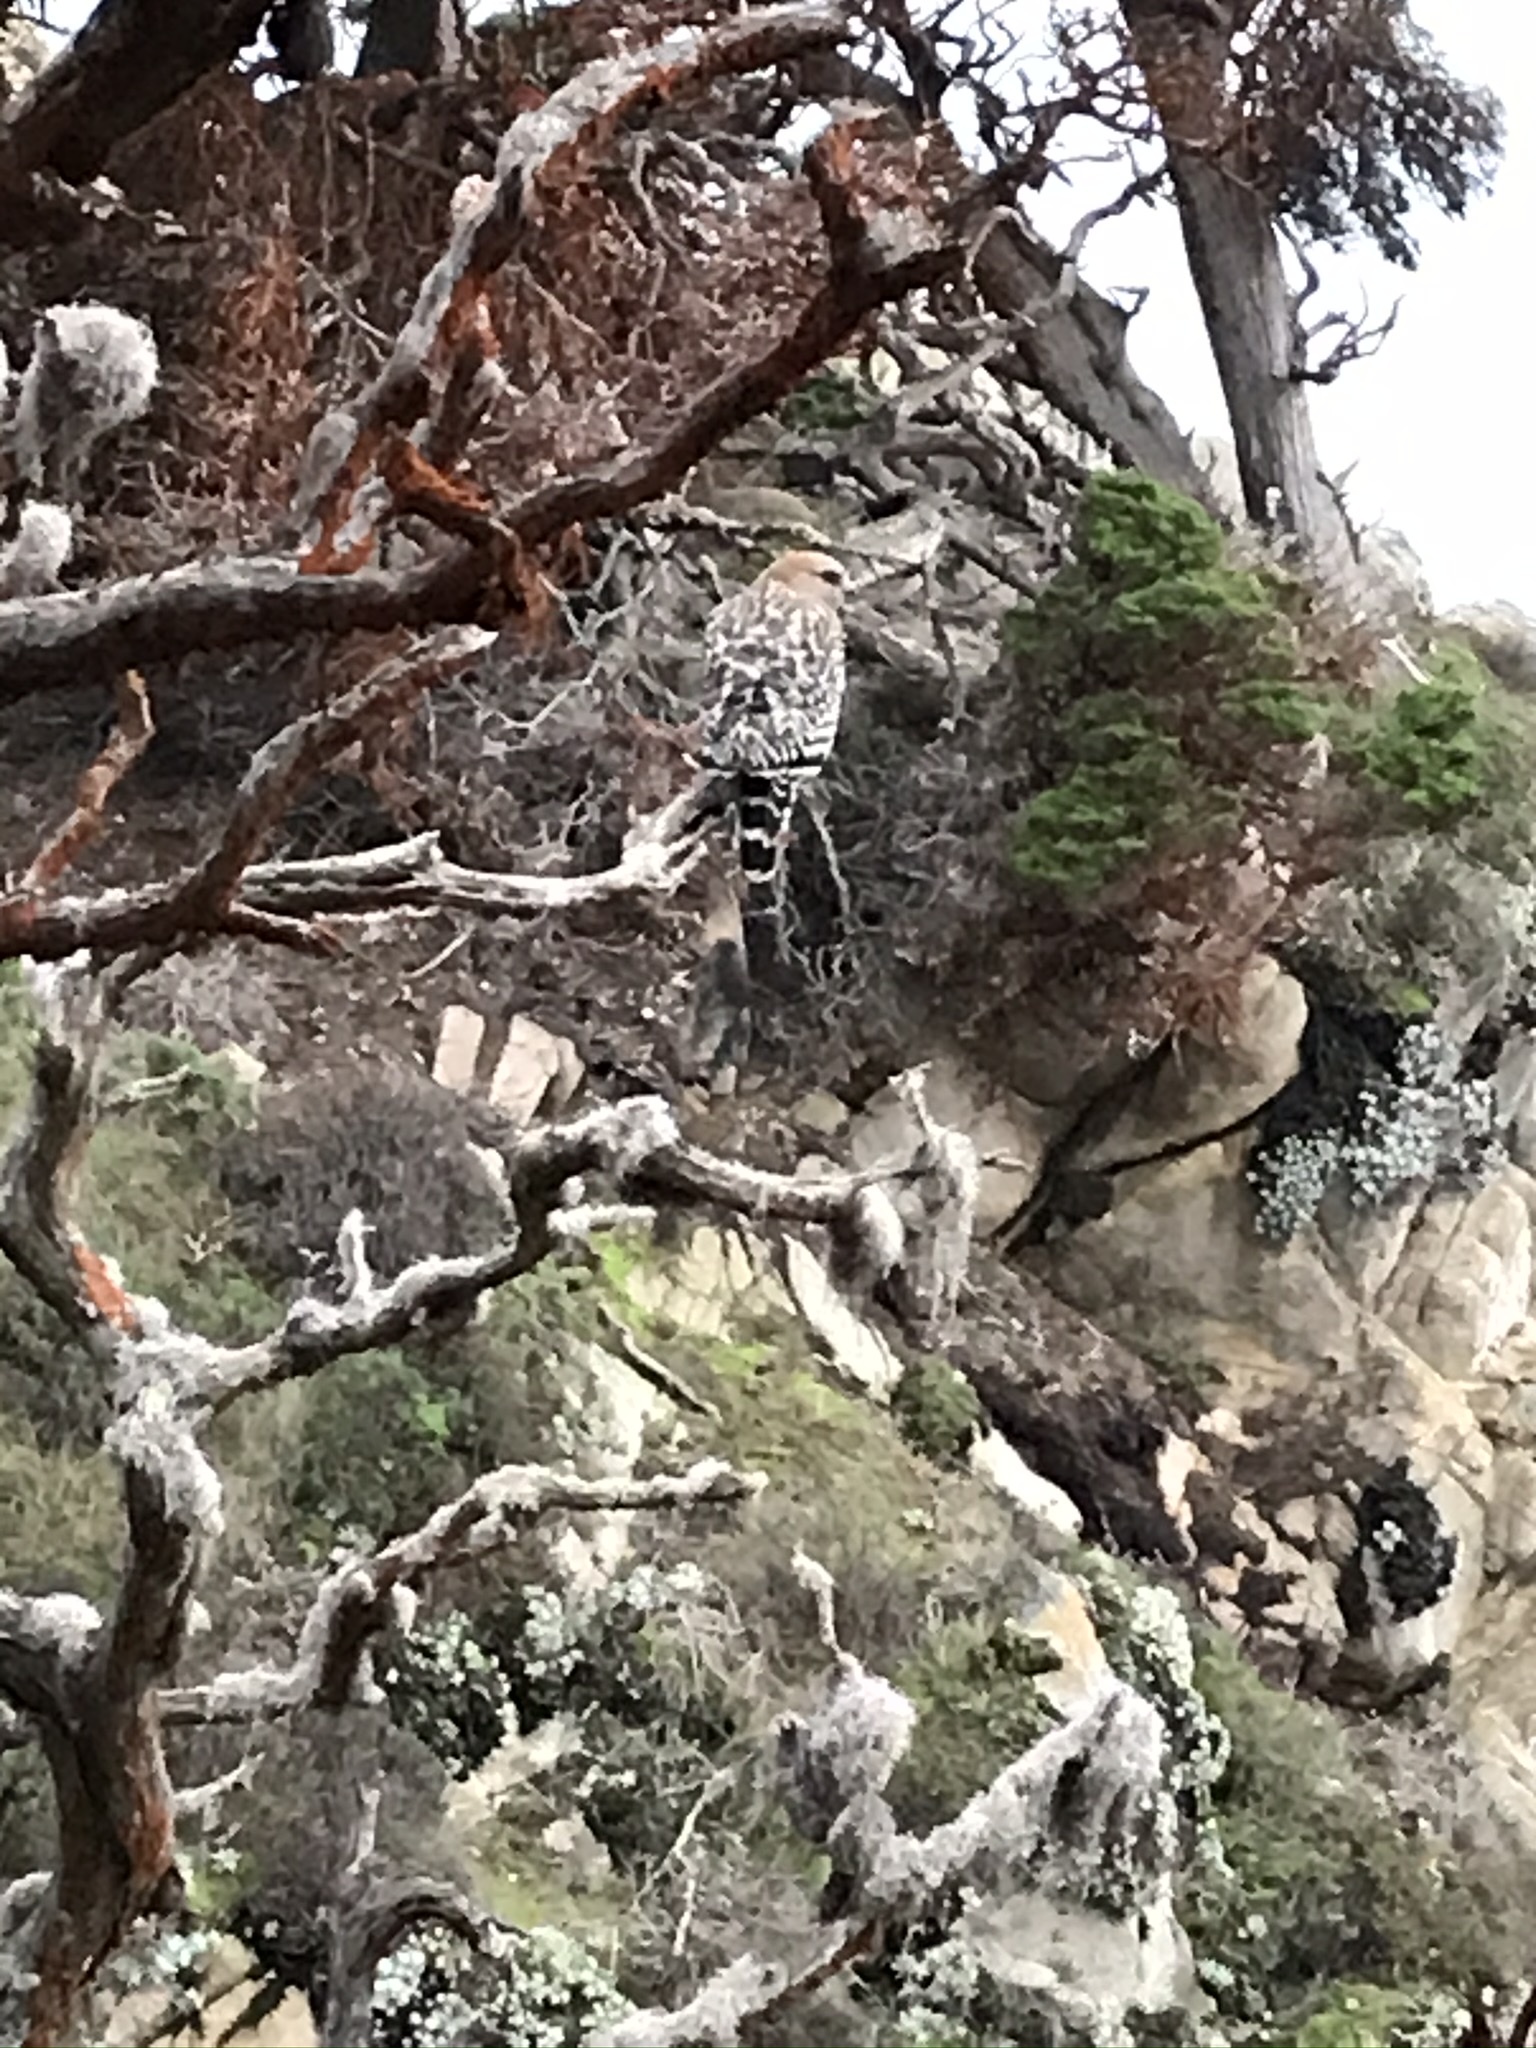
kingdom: Animalia
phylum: Chordata
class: Aves
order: Accipitriformes
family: Accipitridae
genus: Buteo
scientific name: Buteo lineatus
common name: Red-shouldered hawk
